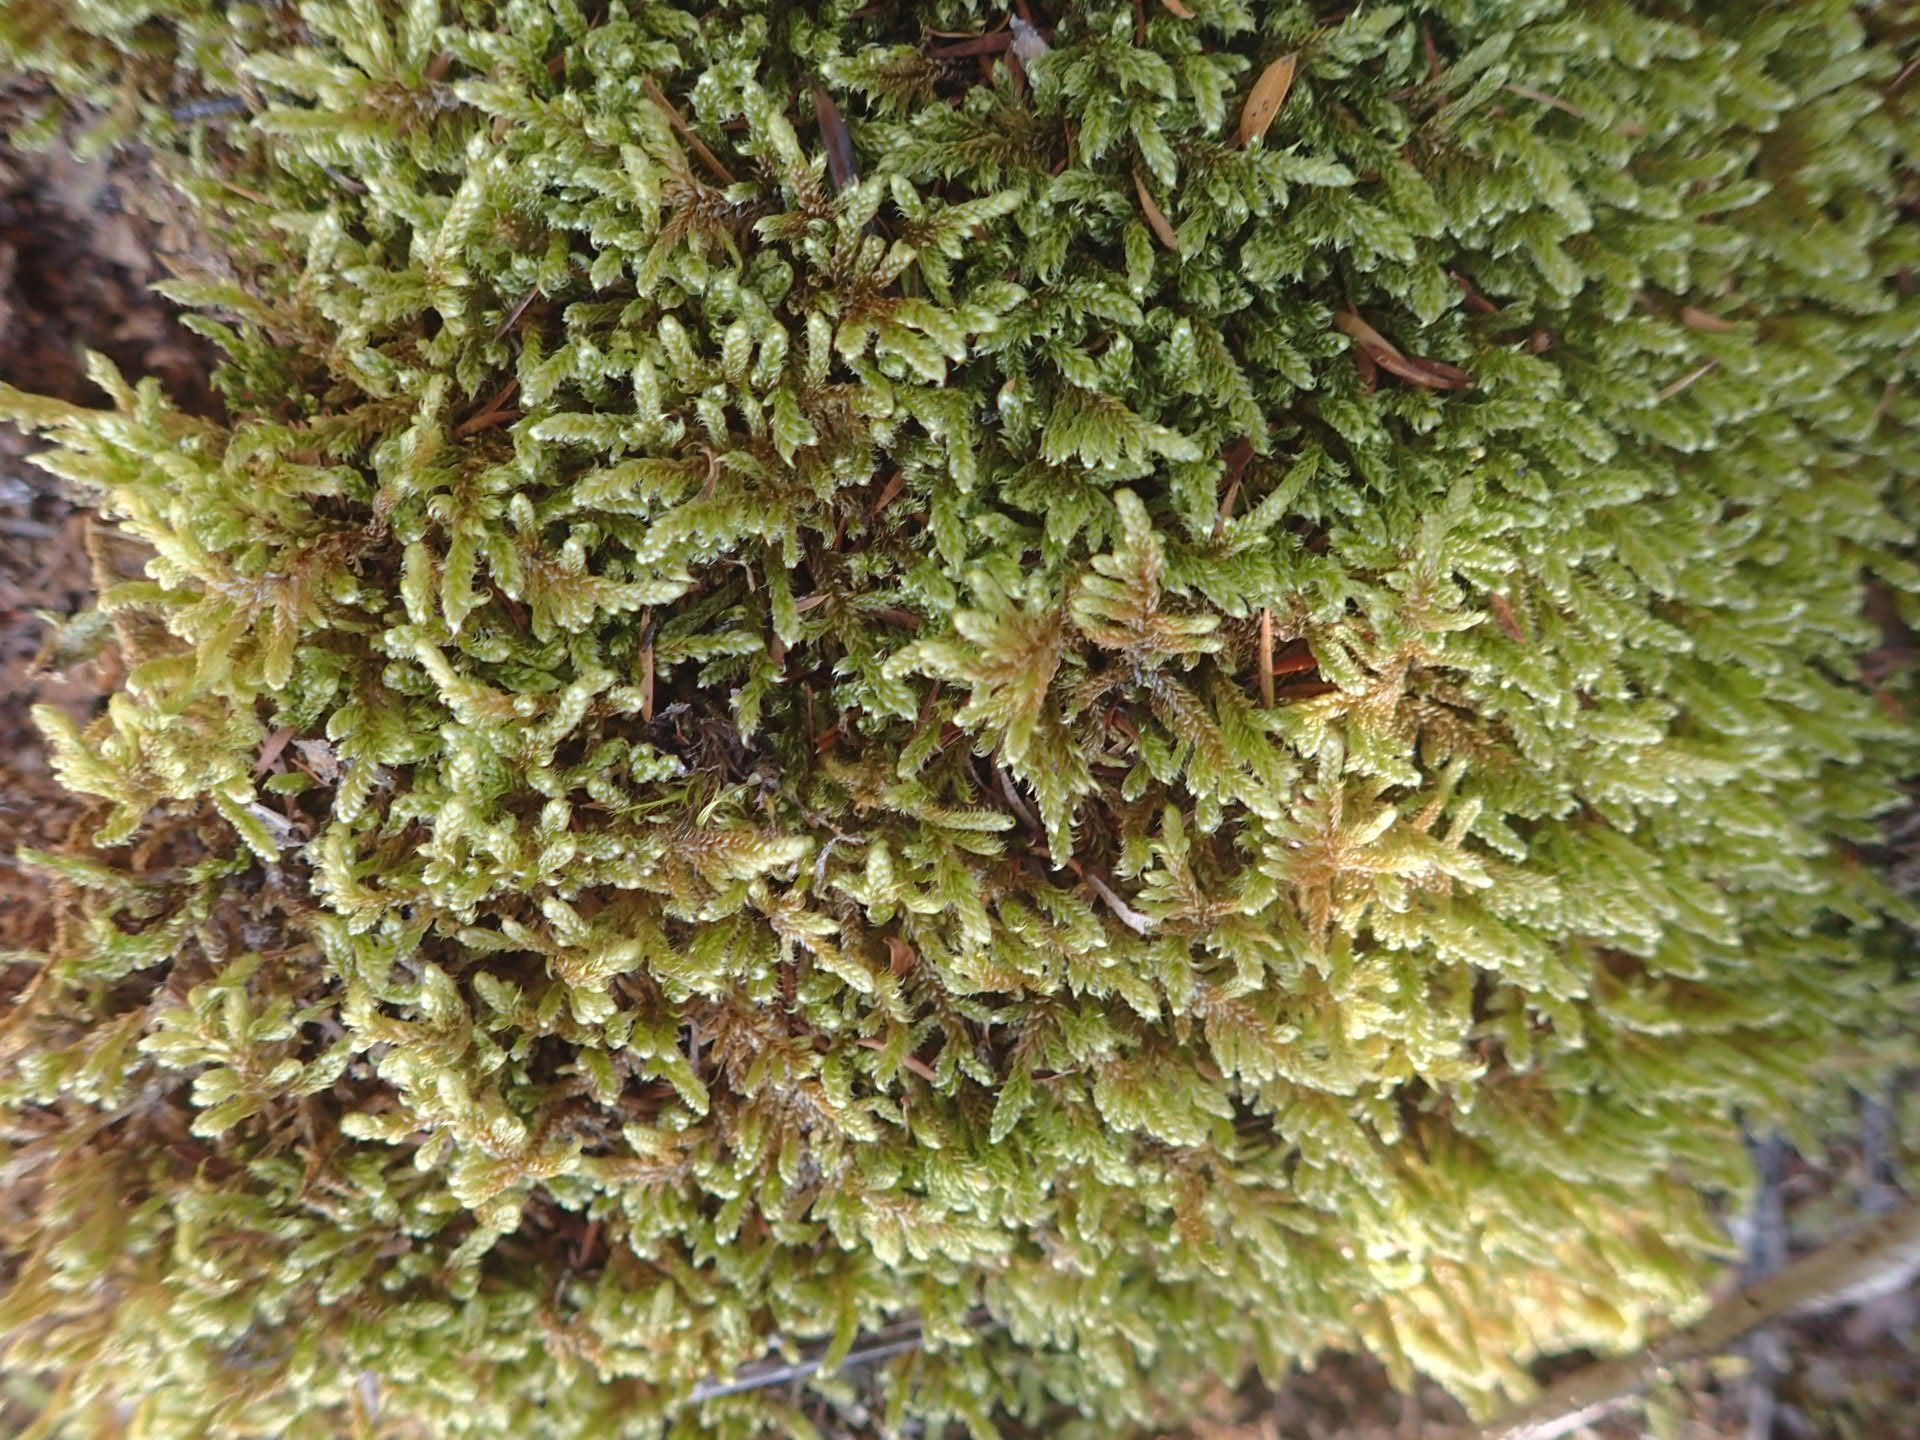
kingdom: Plantae
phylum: Bryophyta
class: Bryopsida
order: Hypnales
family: Hypnaceae
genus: Hypnum
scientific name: Hypnum cupressiforme
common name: Cypress-leaved plait-moss
